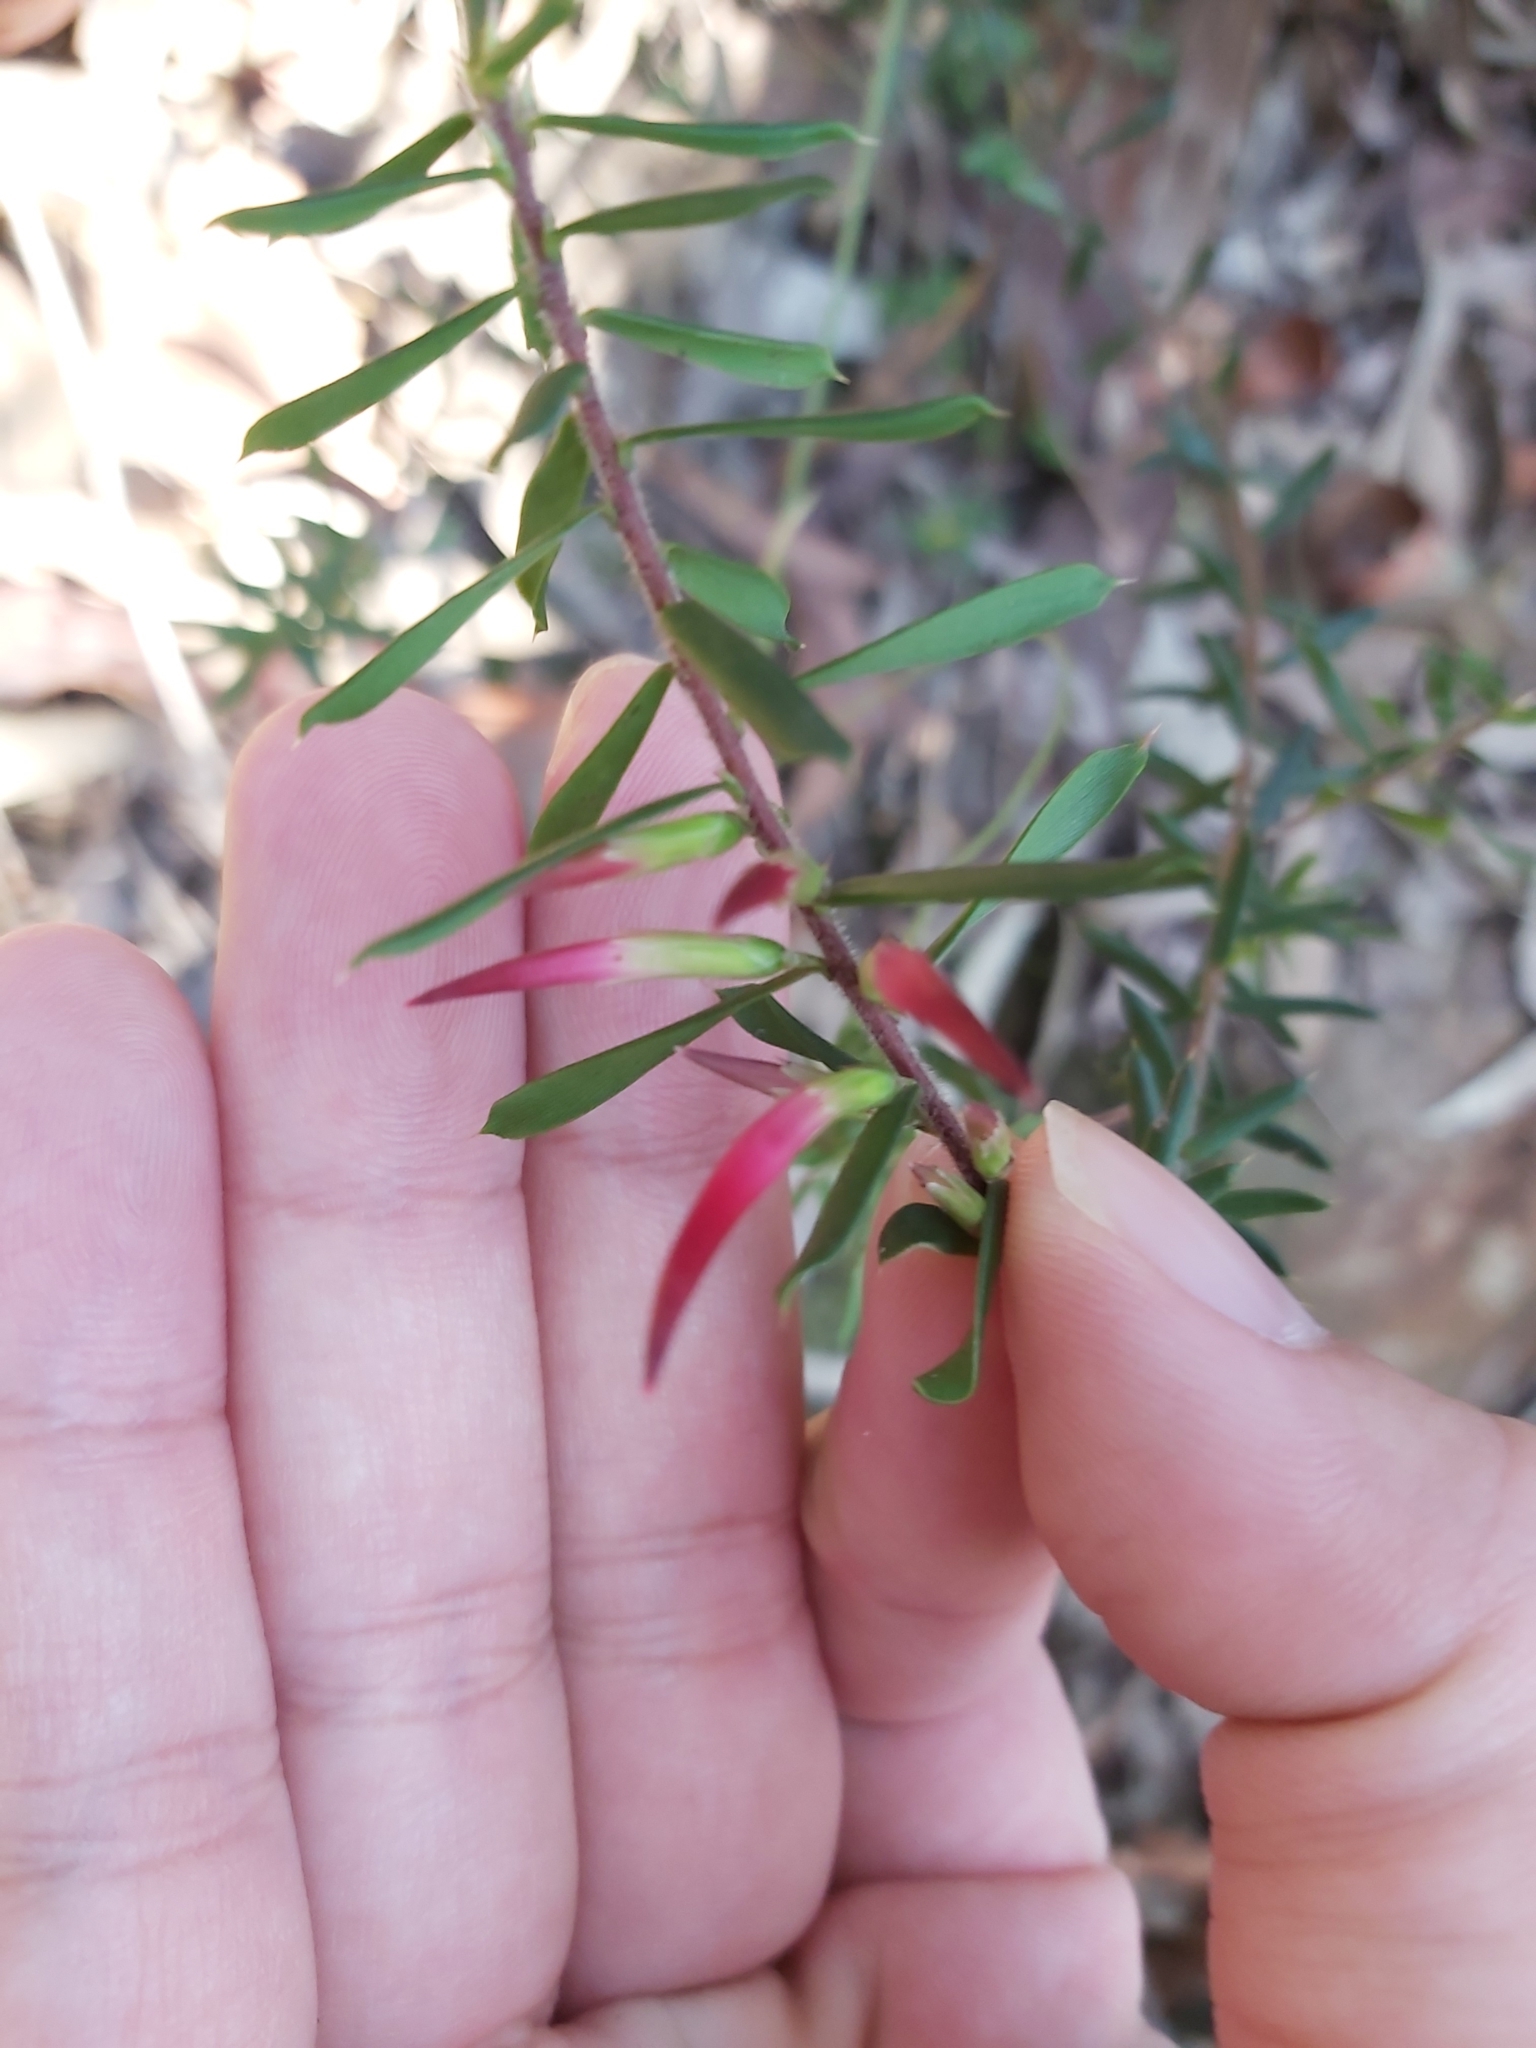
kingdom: Plantae
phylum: Tracheophyta
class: Magnoliopsida
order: Ericales
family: Ericaceae
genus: Styphelia
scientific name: Styphelia tubiflora
